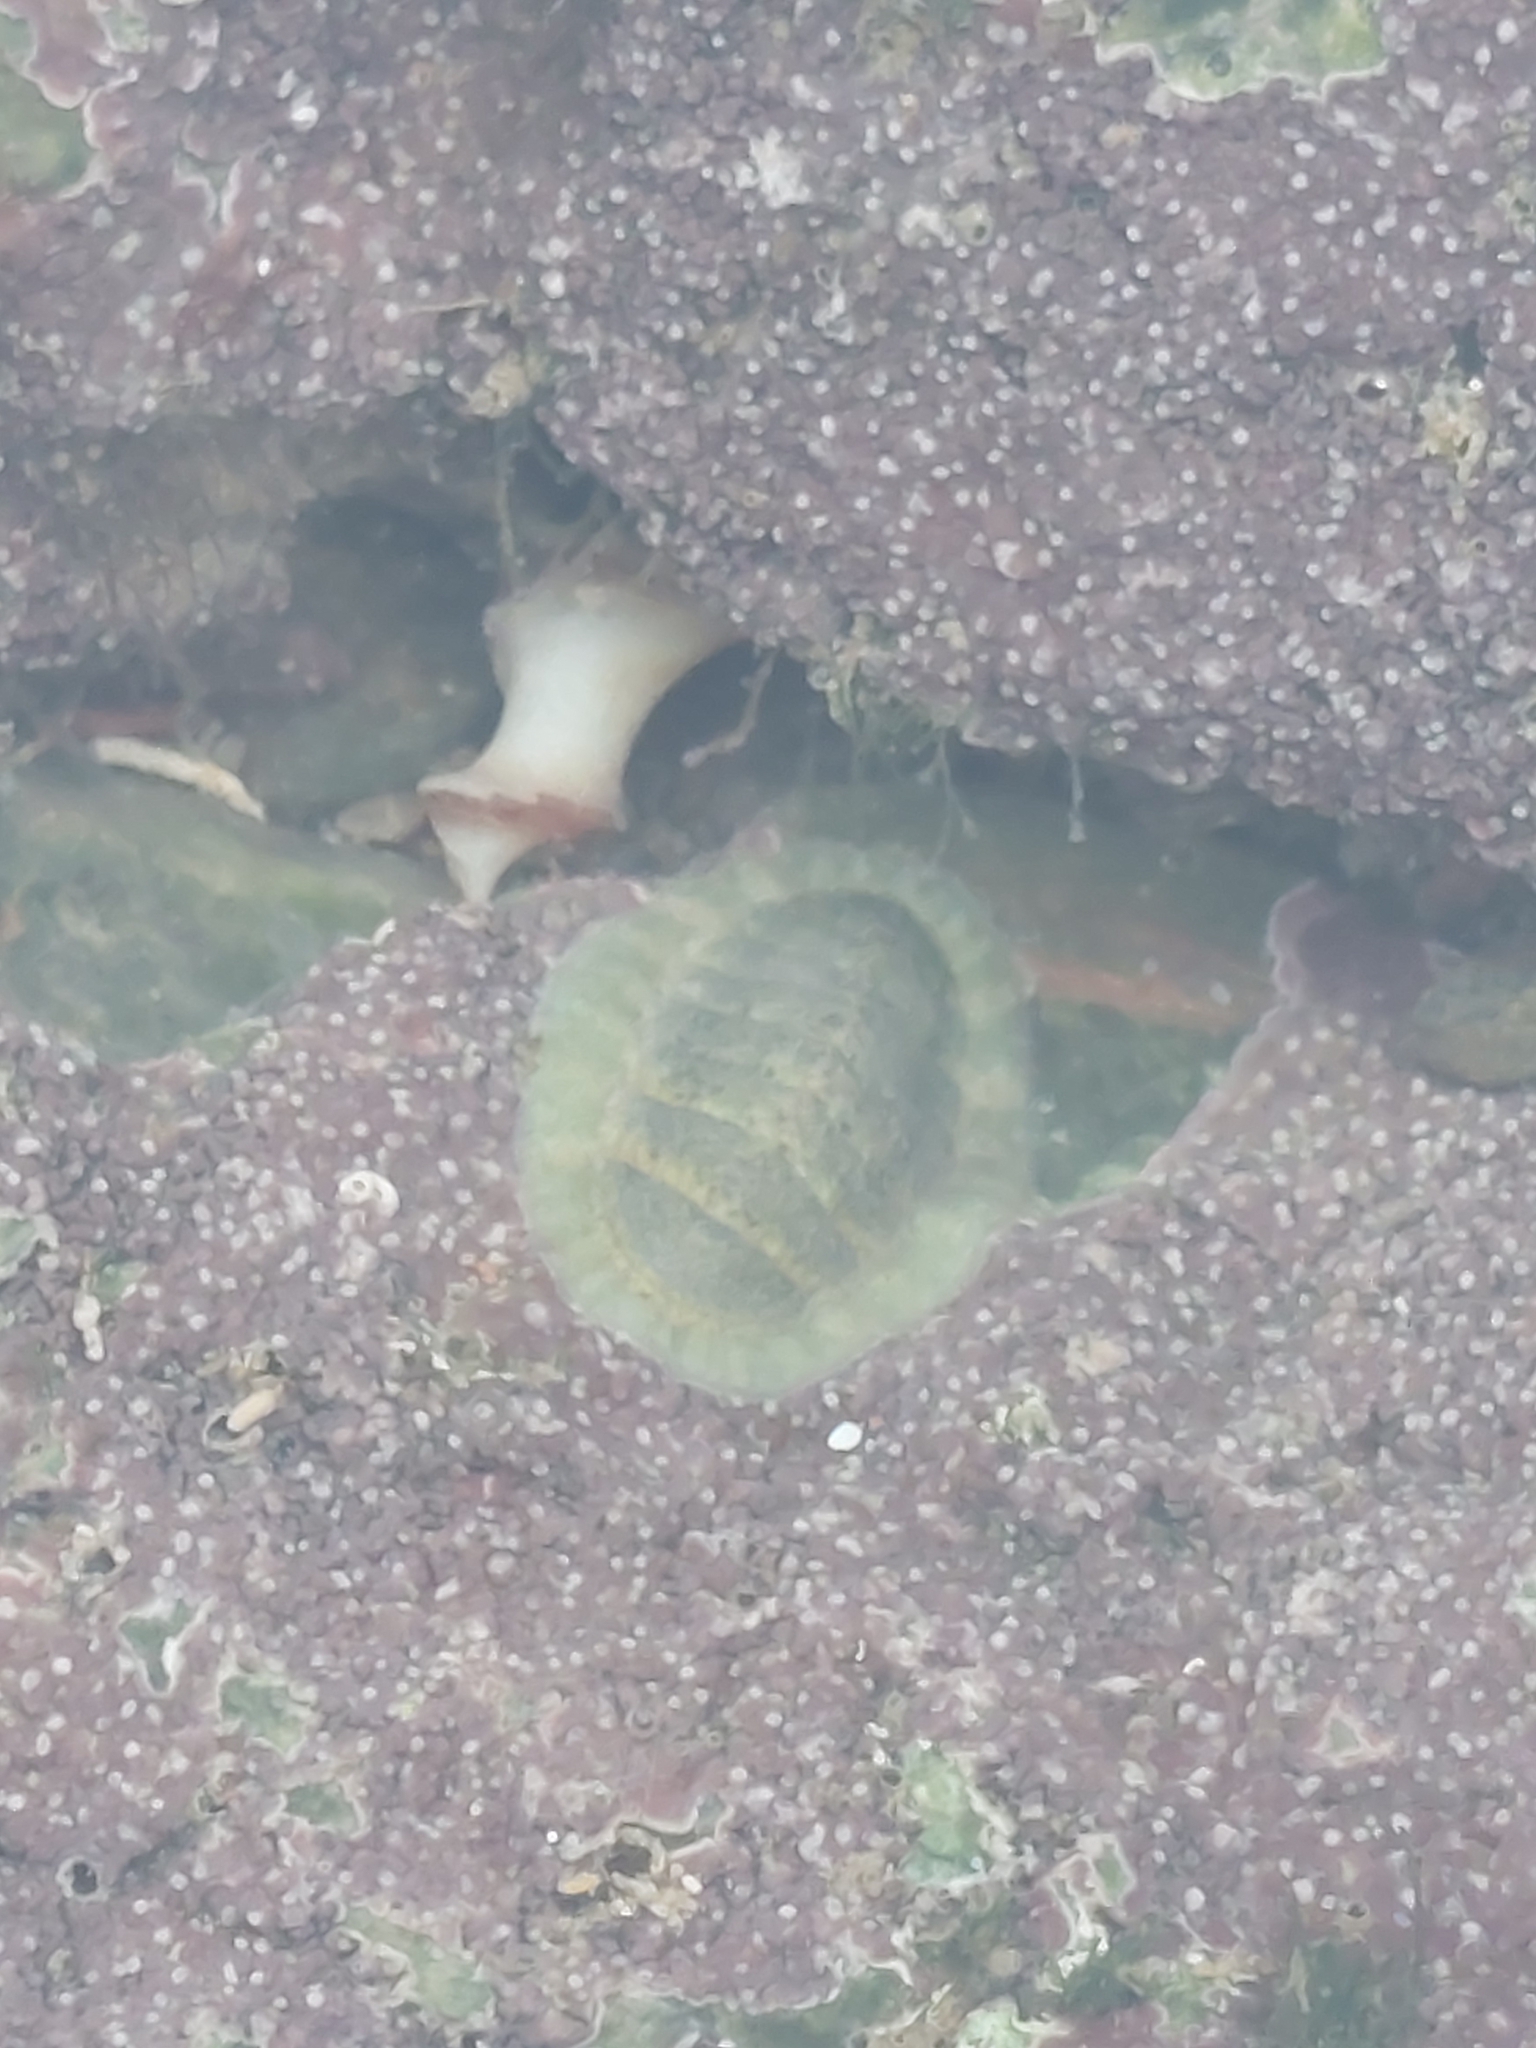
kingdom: Animalia
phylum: Mollusca
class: Polyplacophora
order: Chitonida
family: Tonicellidae
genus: Lepidochitona
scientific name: Lepidochitona cinerea
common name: Cinereous chiton
